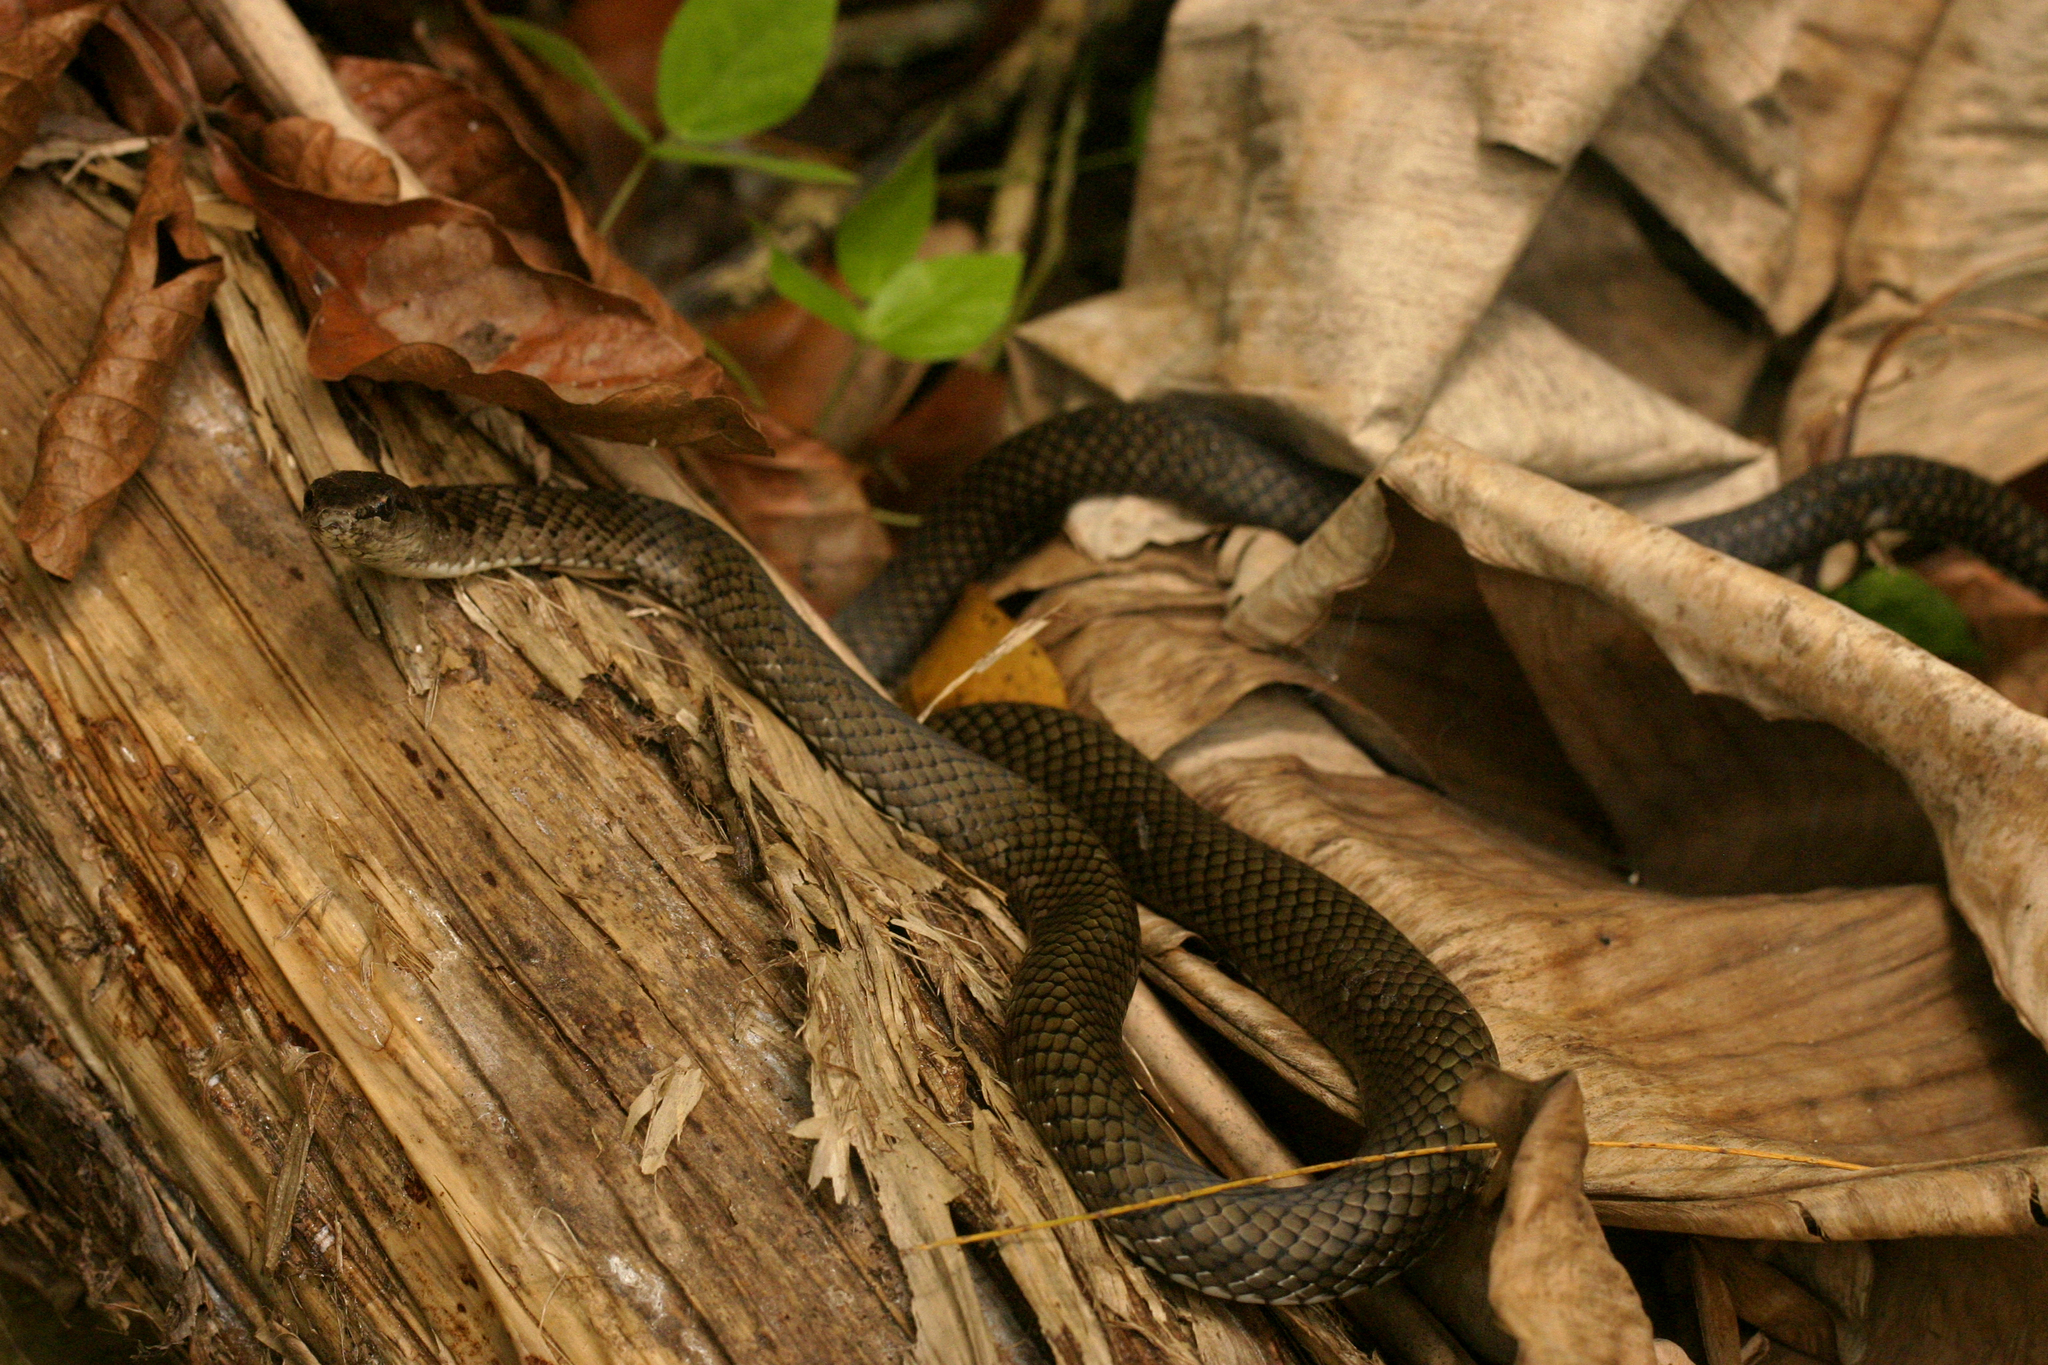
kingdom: Animalia
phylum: Chordata
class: Squamata
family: Colubridae
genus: Borikenophis
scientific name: Borikenophis portoricensis
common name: Puerto rican racer
